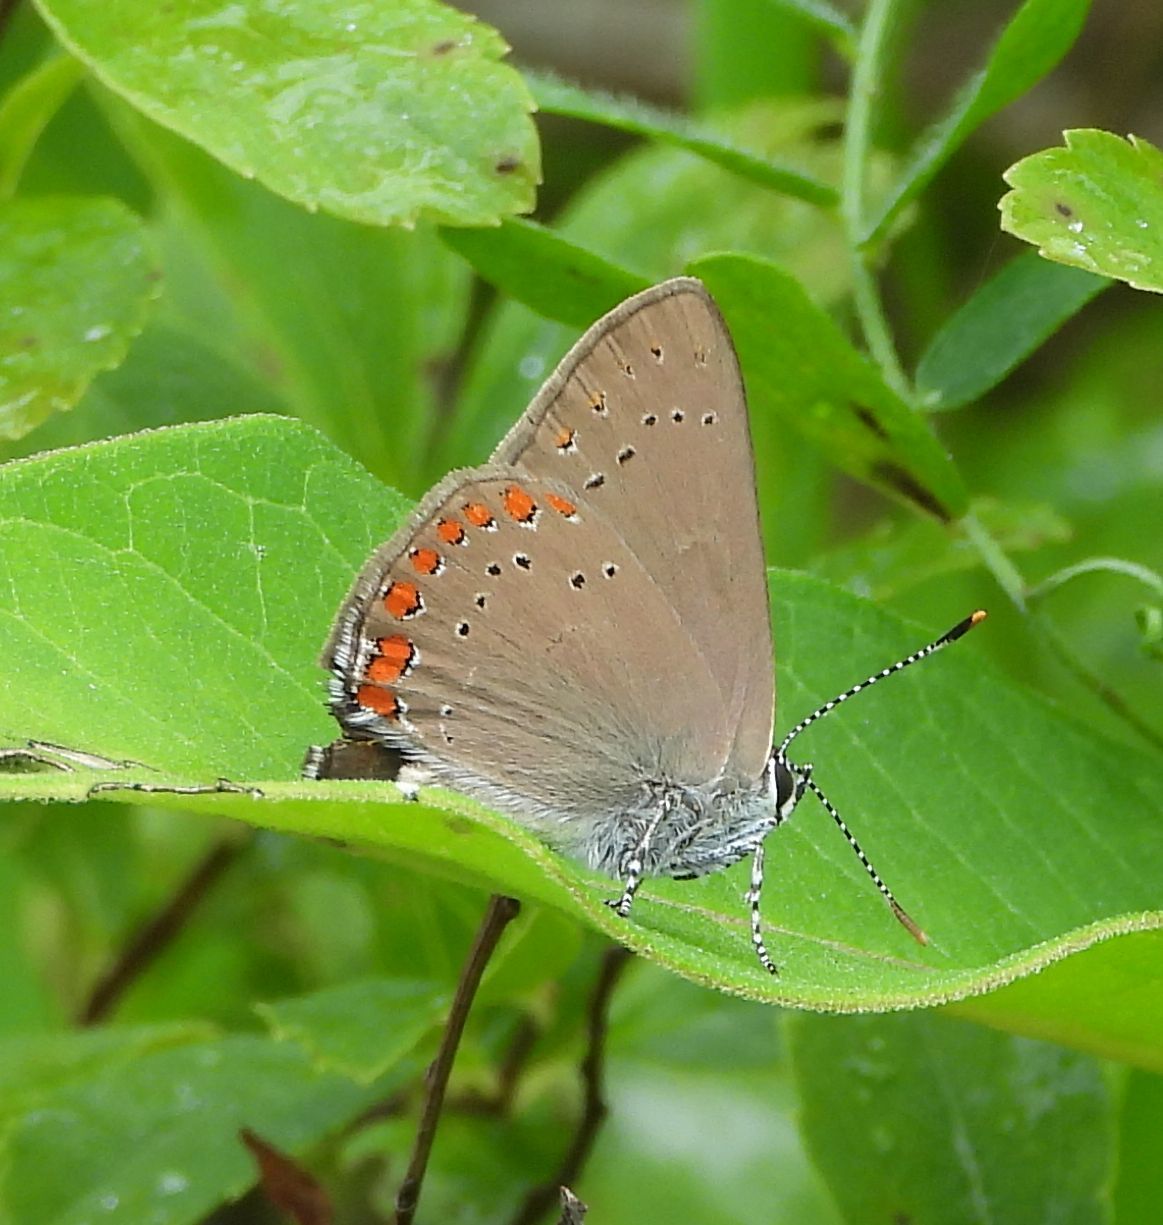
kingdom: Animalia
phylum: Arthropoda
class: Insecta
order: Lepidoptera
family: Lycaenidae
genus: Harkenclenus
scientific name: Harkenclenus titus
